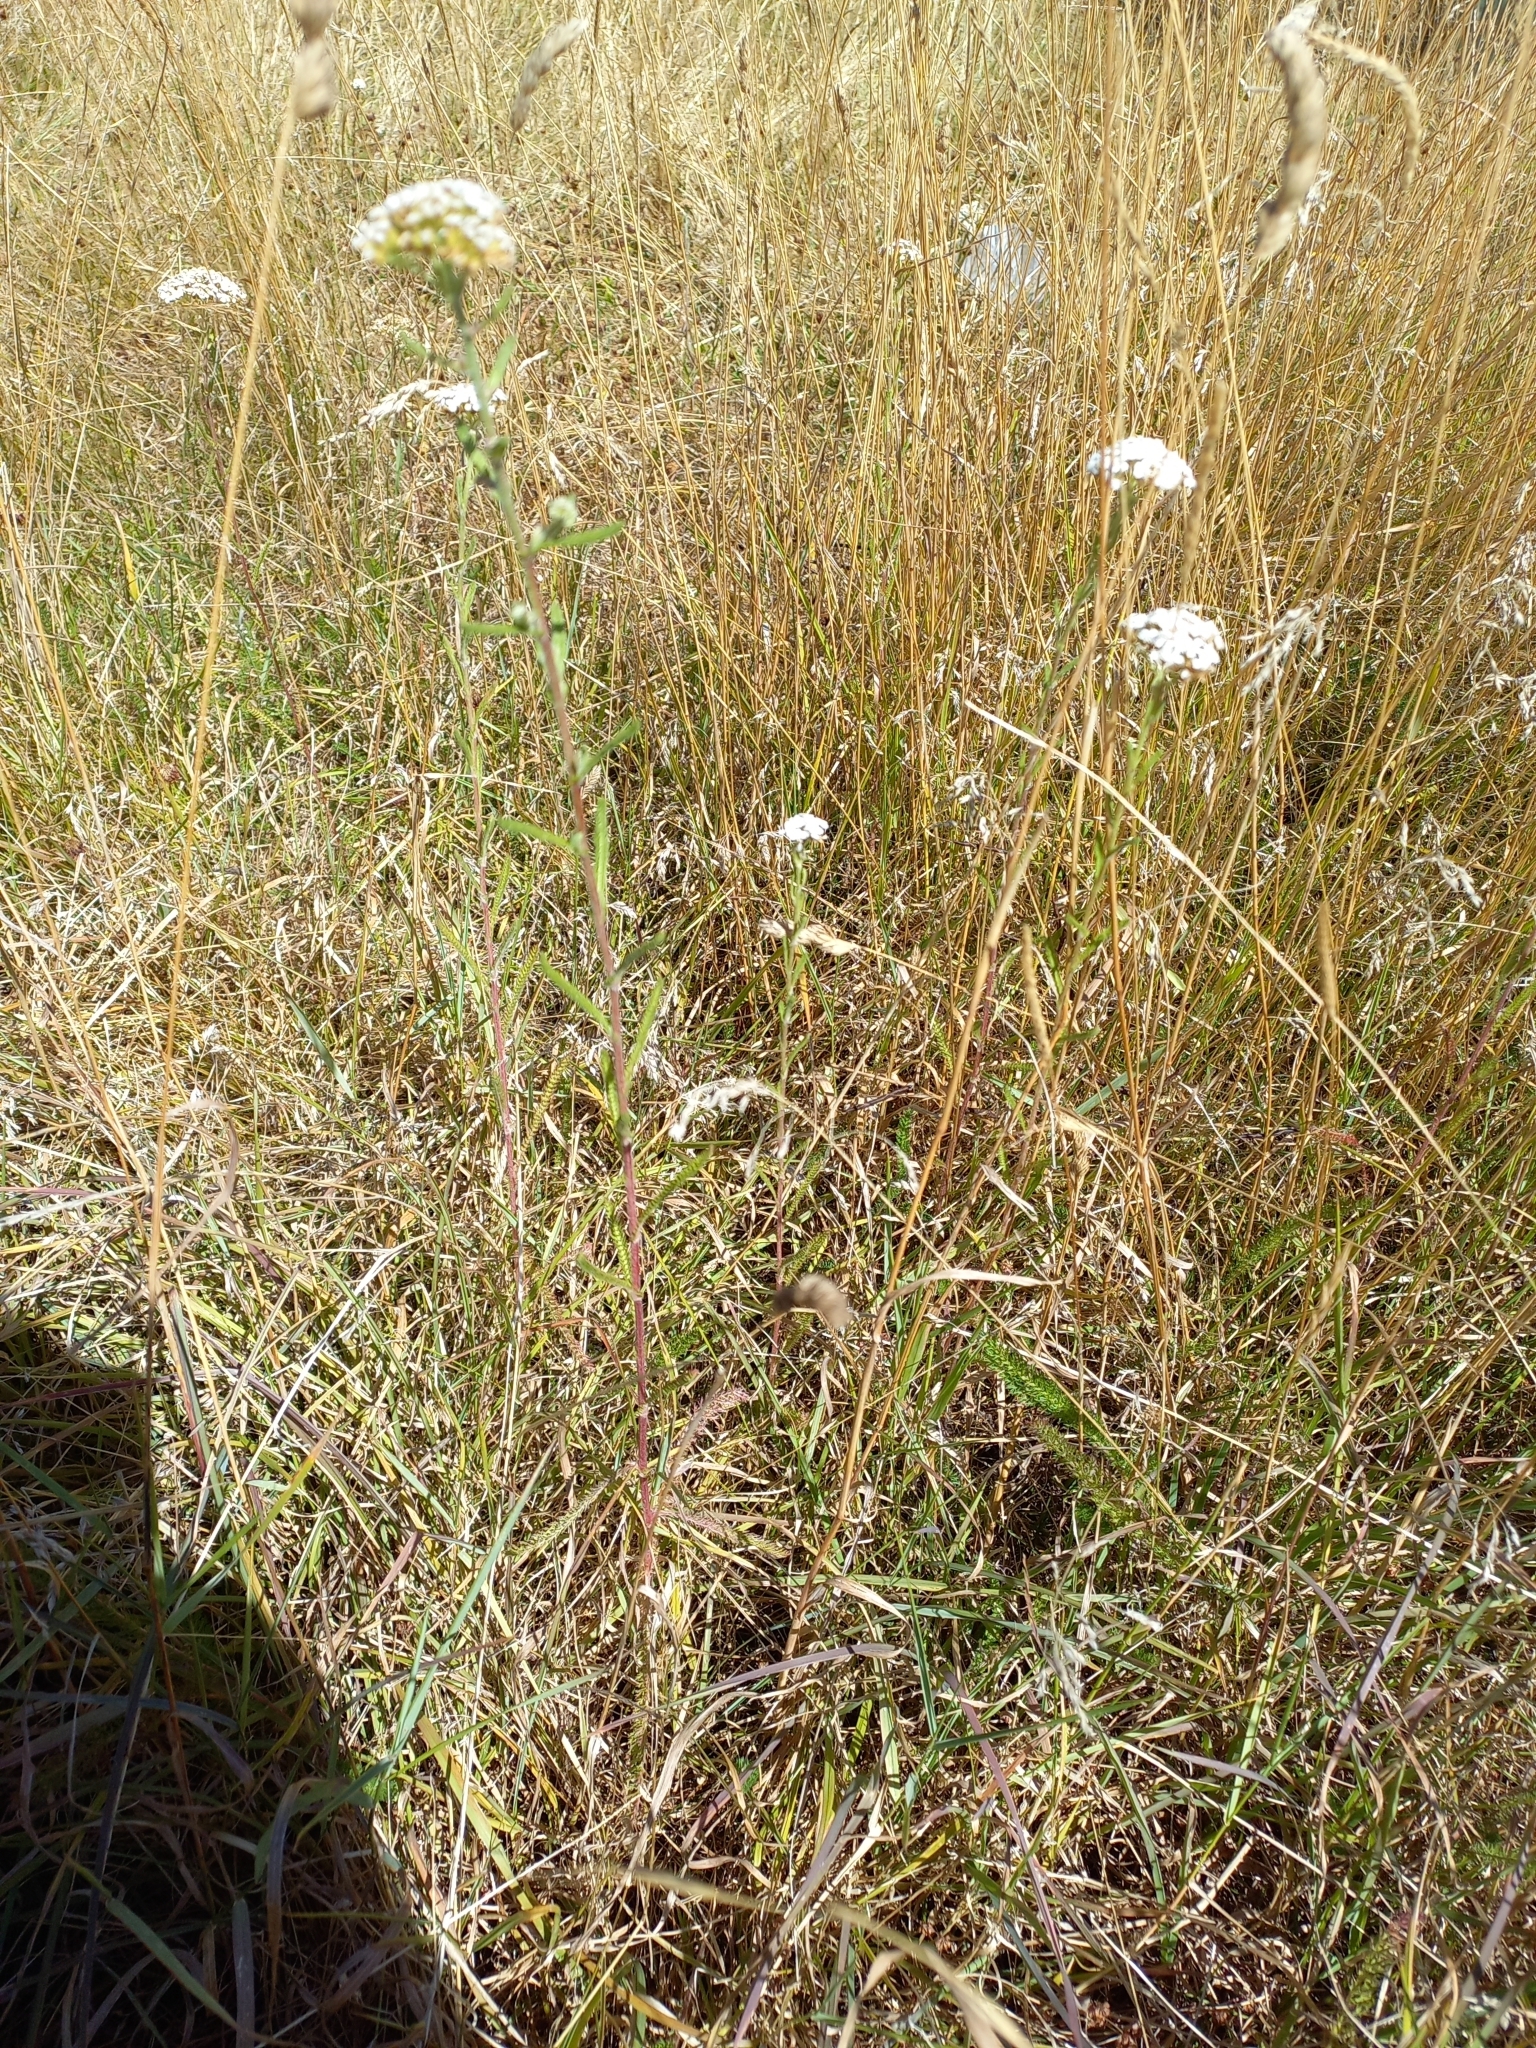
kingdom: Plantae
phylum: Tracheophyta
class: Magnoliopsida
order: Asterales
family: Asteraceae
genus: Achillea
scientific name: Achillea millefolium
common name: Yarrow
